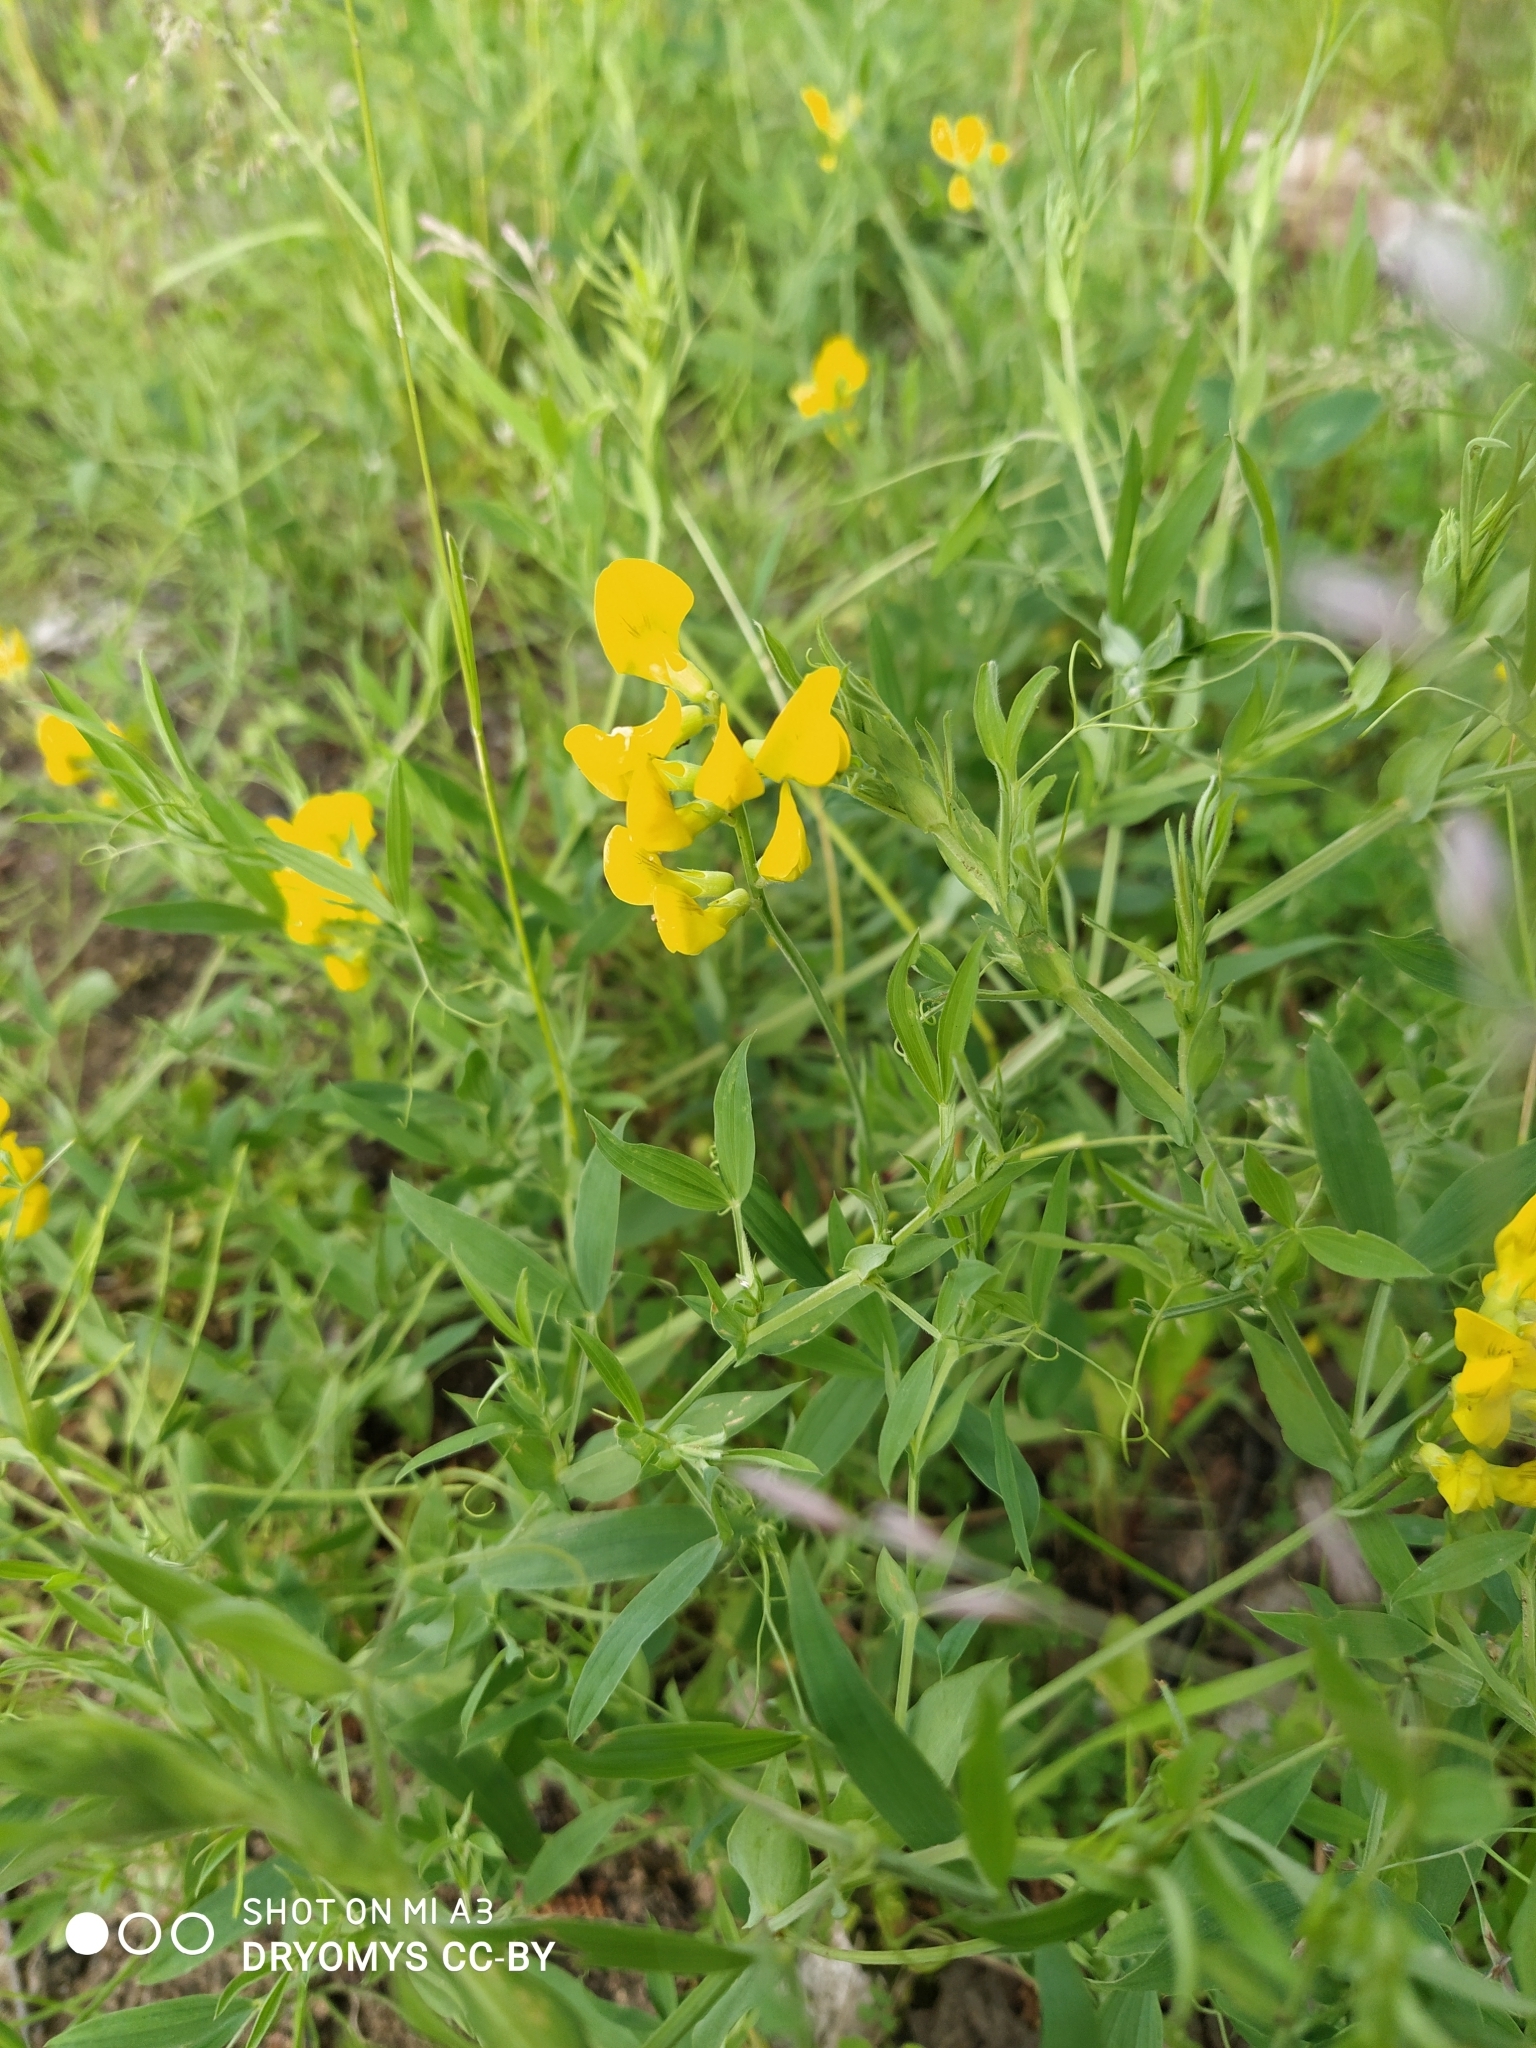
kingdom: Plantae
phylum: Tracheophyta
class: Magnoliopsida
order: Fabales
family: Fabaceae
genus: Lathyrus
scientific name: Lathyrus pratensis
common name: Meadow vetchling
